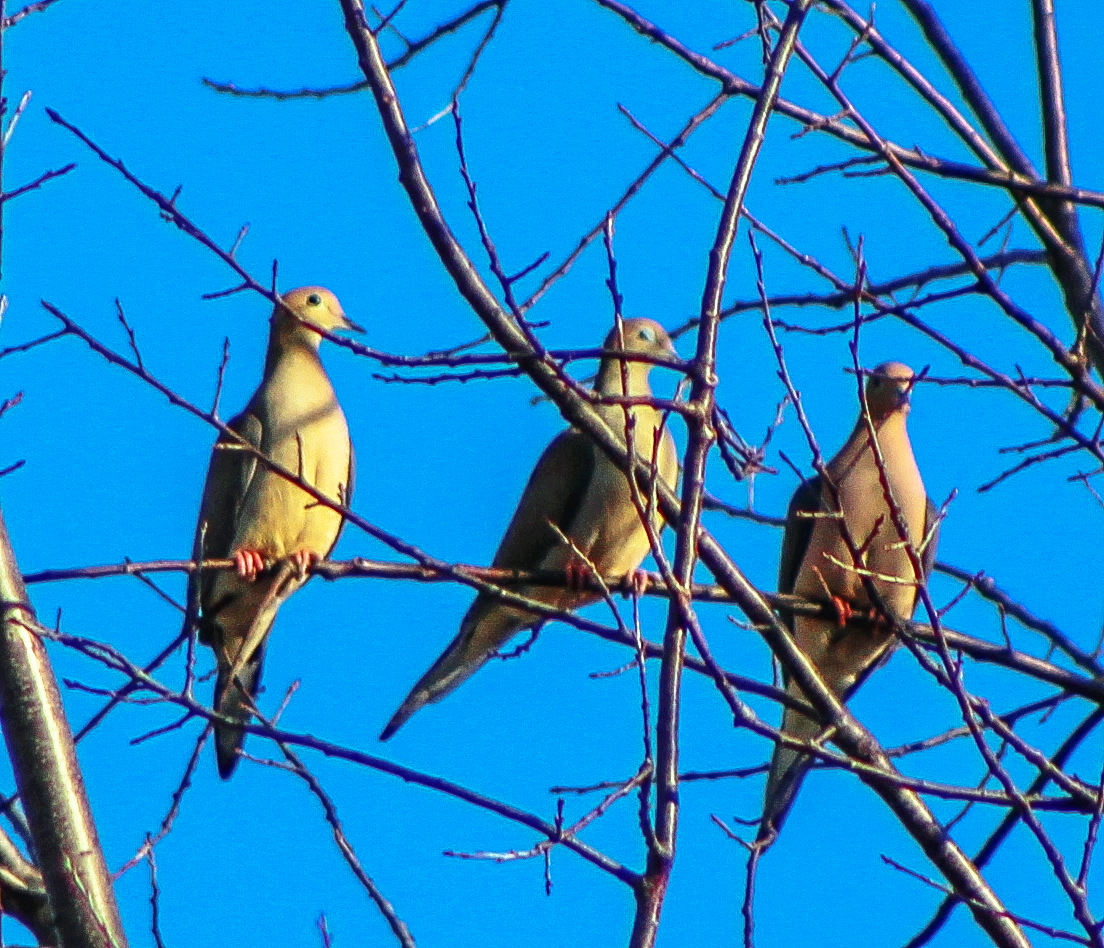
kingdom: Animalia
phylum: Chordata
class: Aves
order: Columbiformes
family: Columbidae
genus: Zenaida
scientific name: Zenaida macroura
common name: Mourning dove
